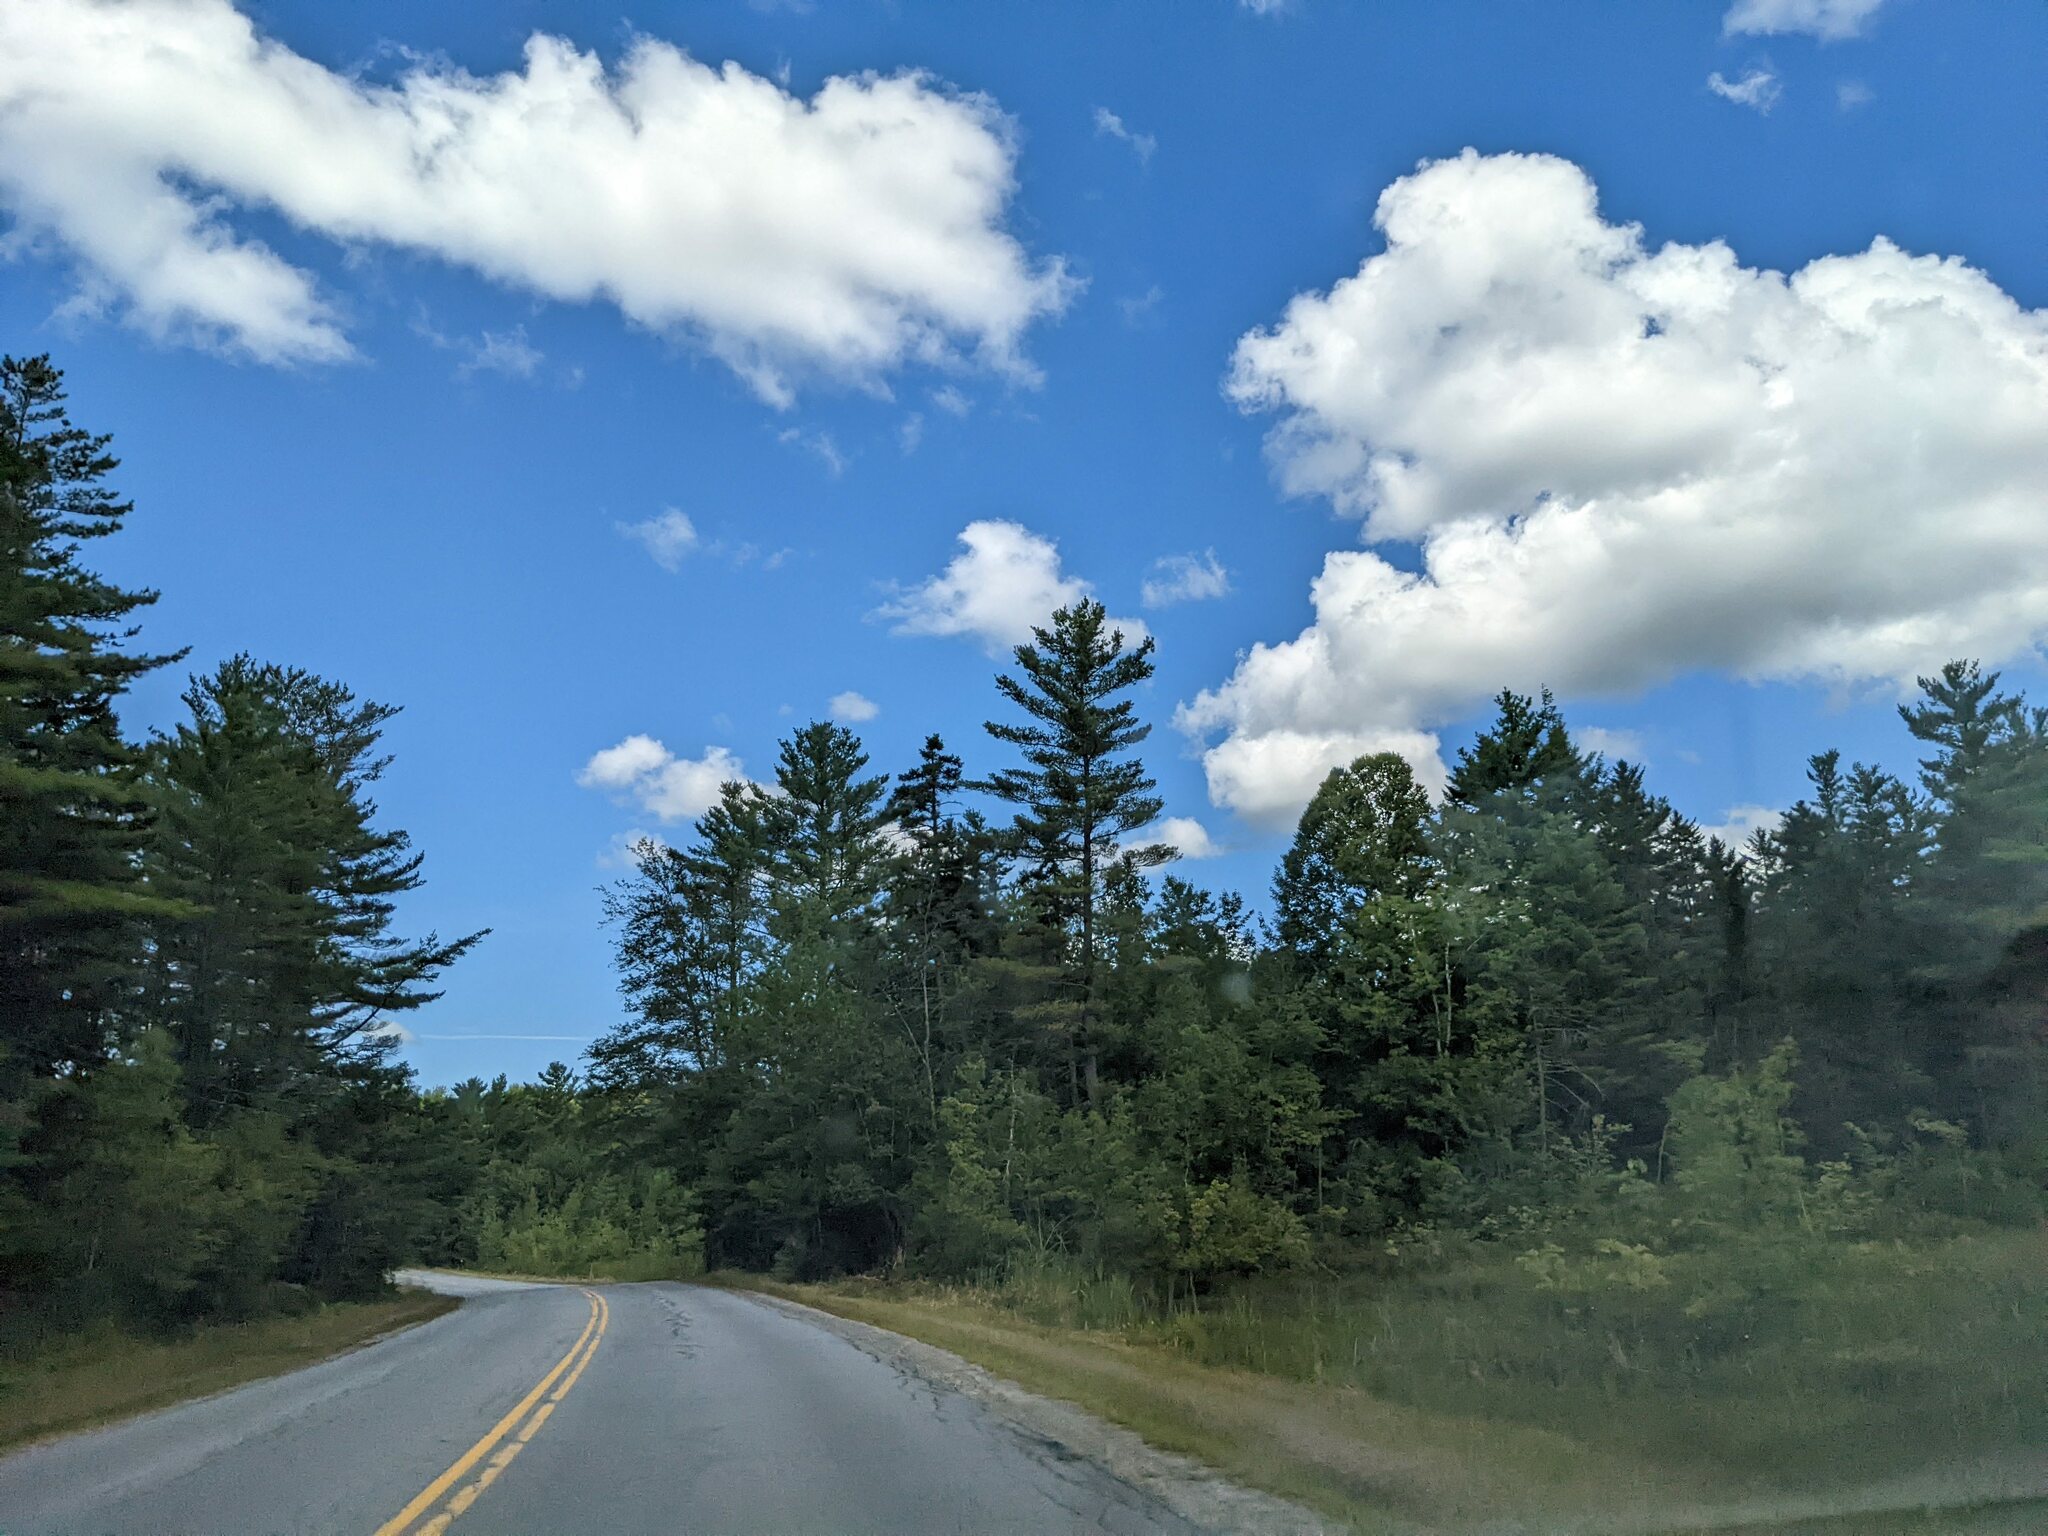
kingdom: Plantae
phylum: Tracheophyta
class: Pinopsida
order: Pinales
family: Pinaceae
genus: Pinus
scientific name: Pinus strobus
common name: Weymouth pine
